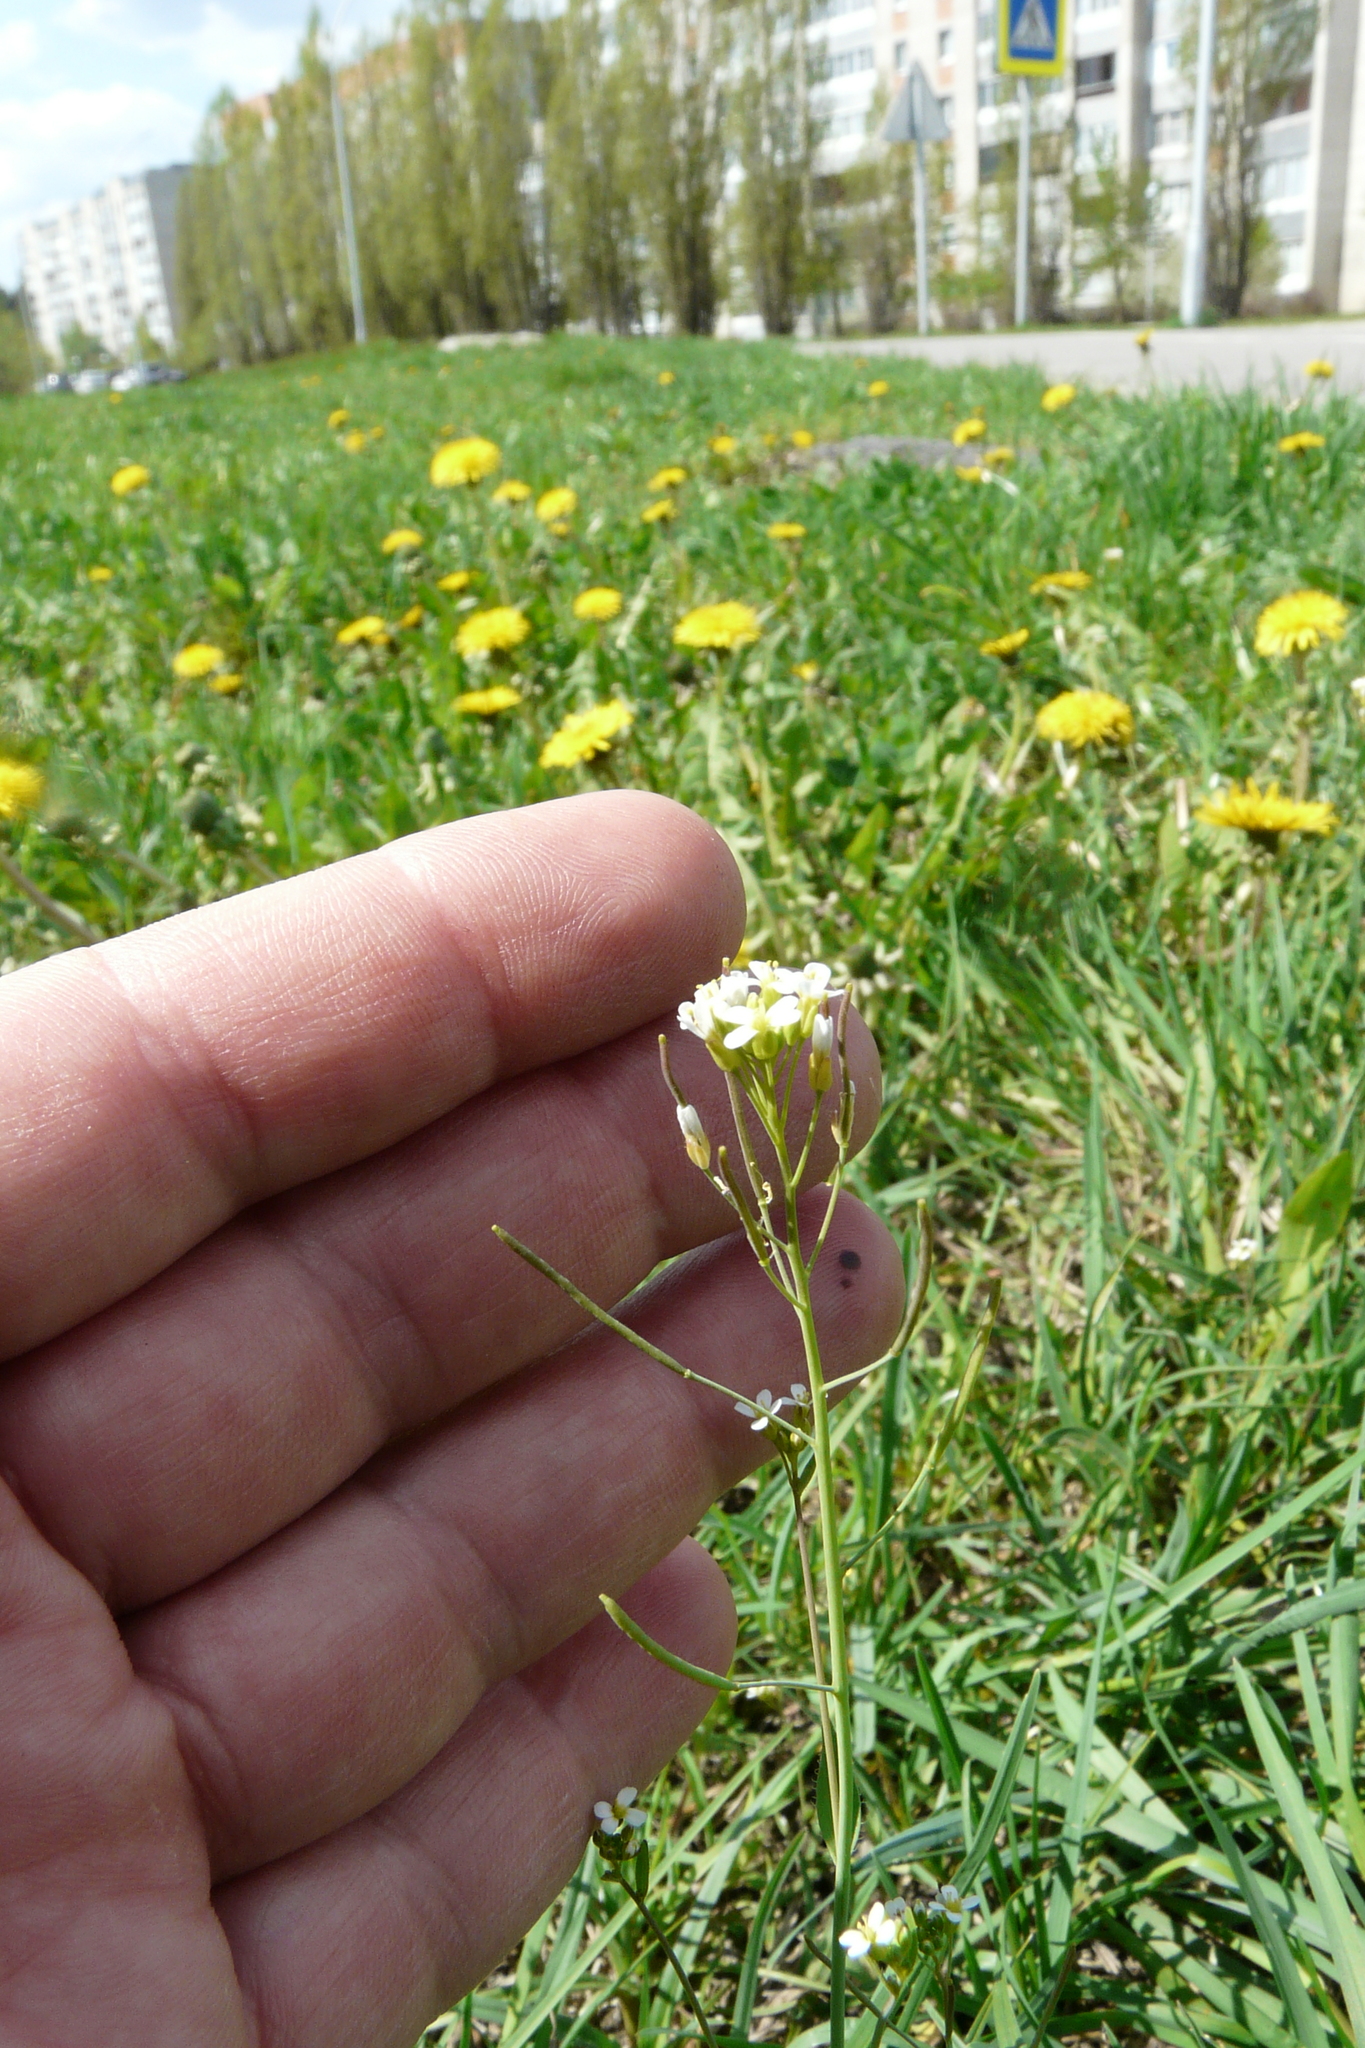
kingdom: Plantae
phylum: Tracheophyta
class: Magnoliopsida
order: Brassicales
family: Brassicaceae
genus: Arabidopsis
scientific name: Arabidopsis thaliana
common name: Thale cress
